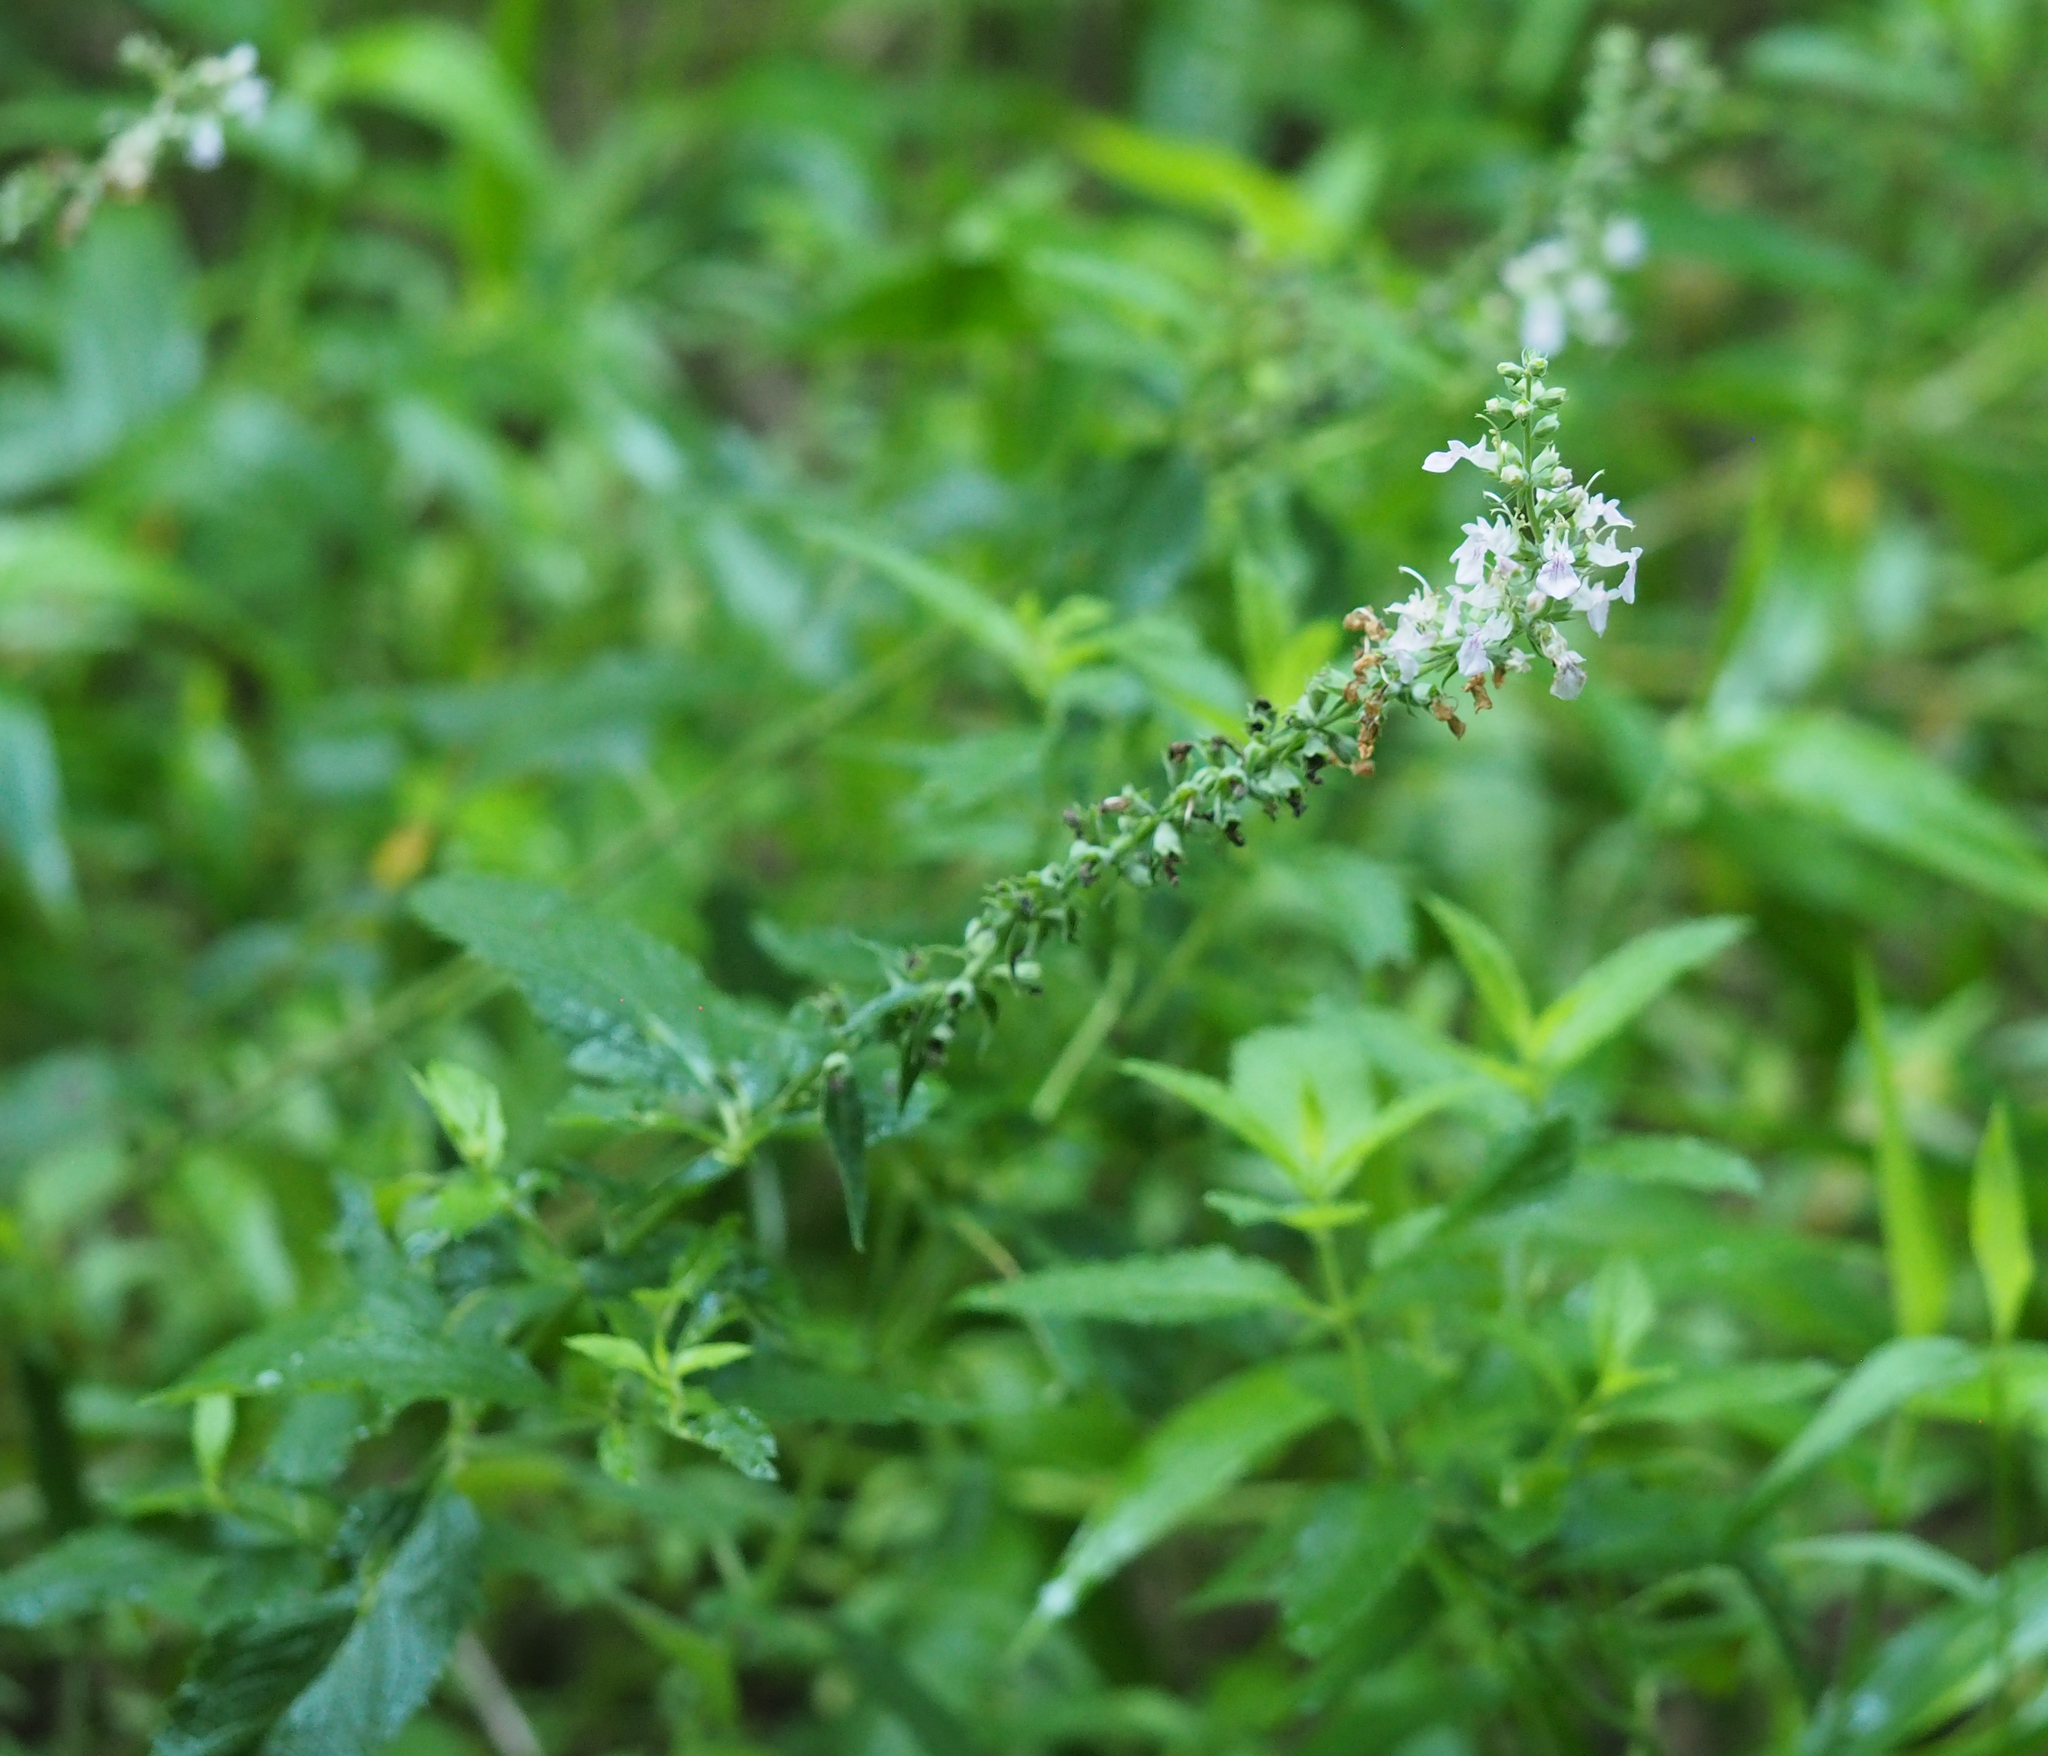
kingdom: Plantae
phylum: Tracheophyta
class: Magnoliopsida
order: Lamiales
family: Lamiaceae
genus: Teucrium
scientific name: Teucrium canadense
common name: American germander
